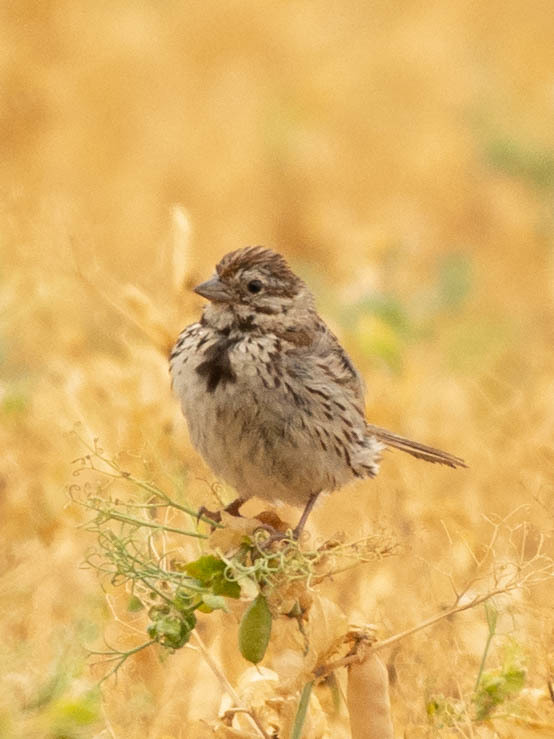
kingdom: Animalia
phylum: Chordata
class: Aves
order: Passeriformes
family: Passerellidae
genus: Melospiza
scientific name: Melospiza melodia
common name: Song sparrow
